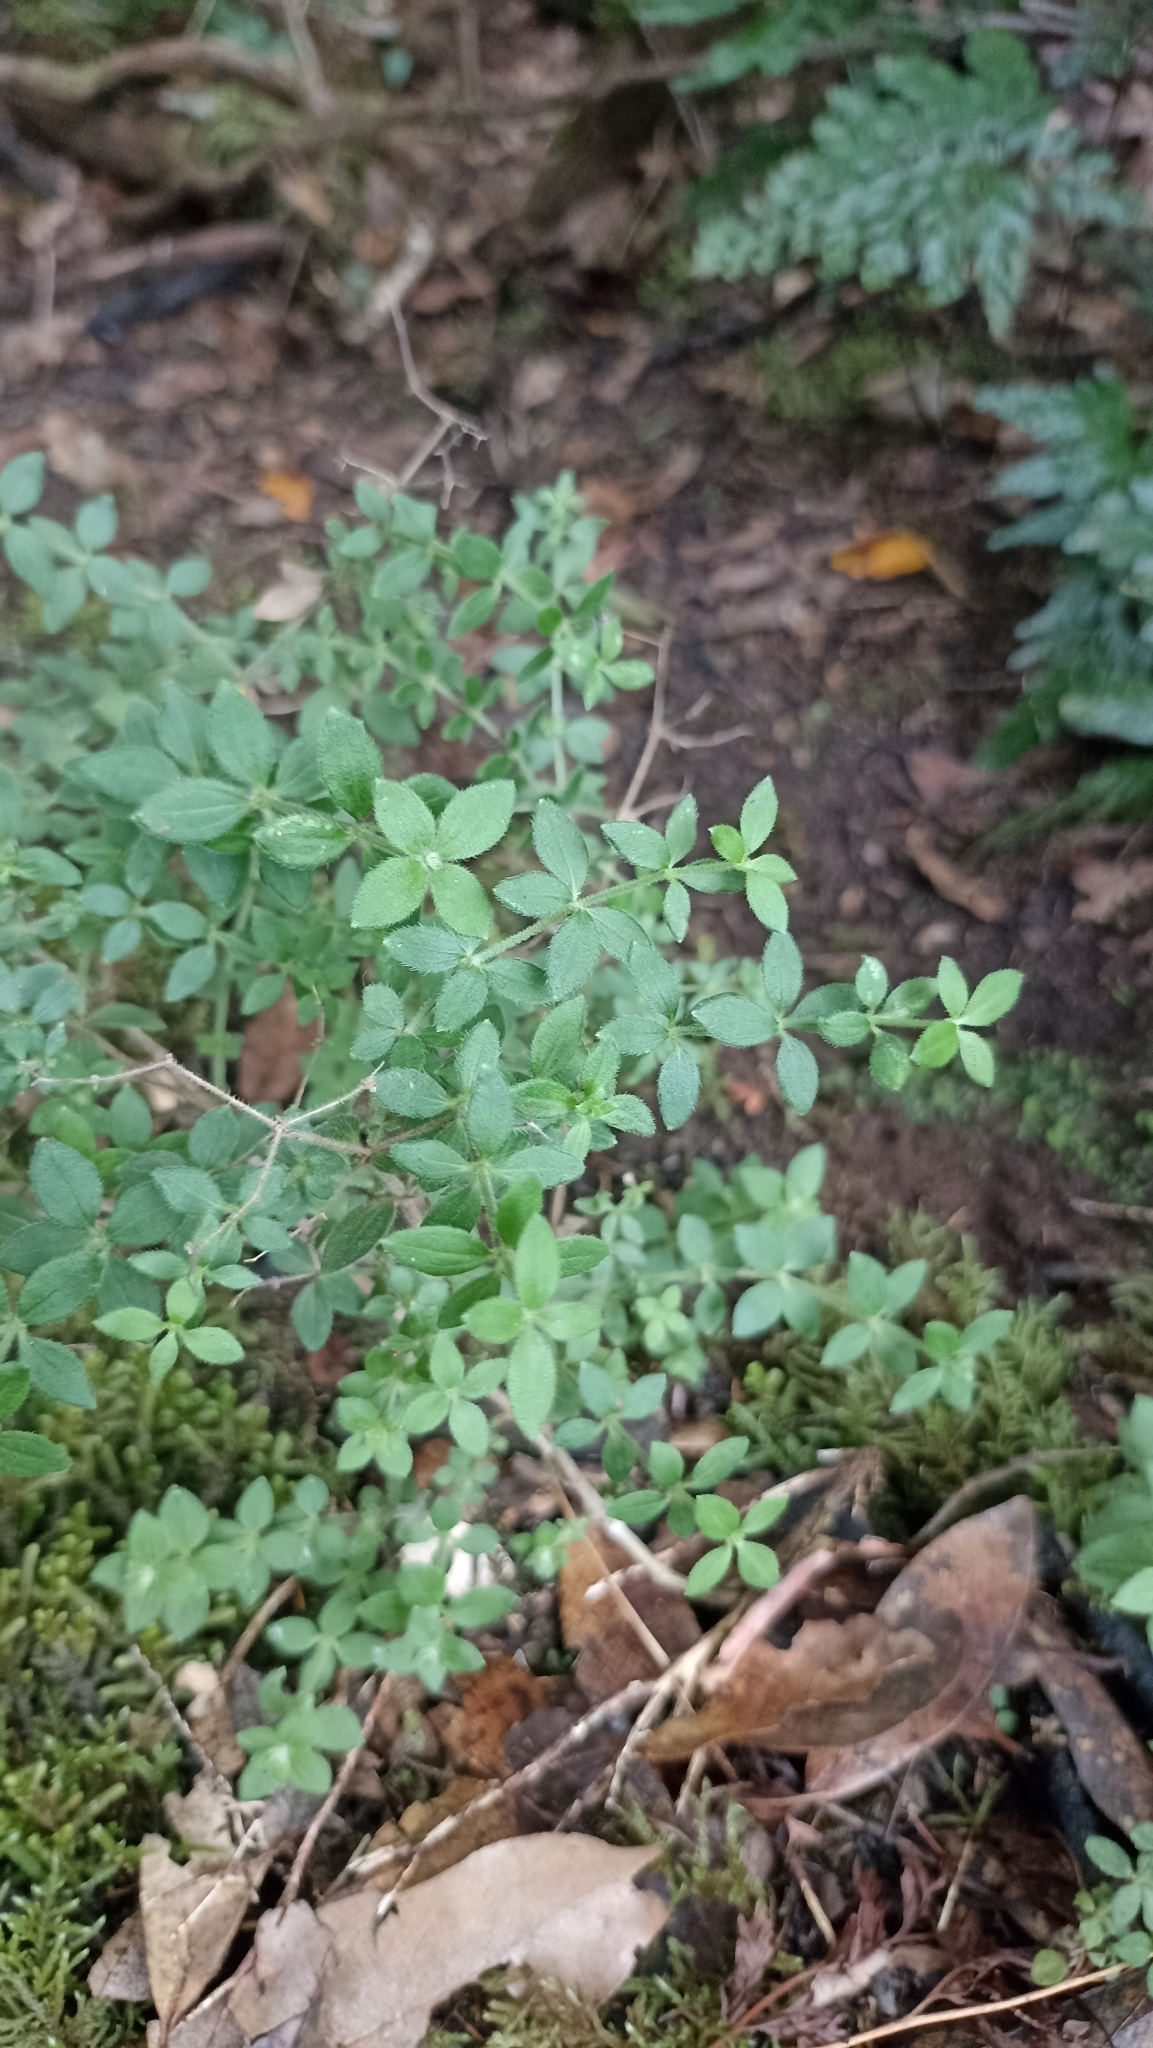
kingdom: Plantae
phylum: Tracheophyta
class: Magnoliopsida
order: Gentianales
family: Rubiaceae
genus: Galium
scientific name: Galium scabrum
